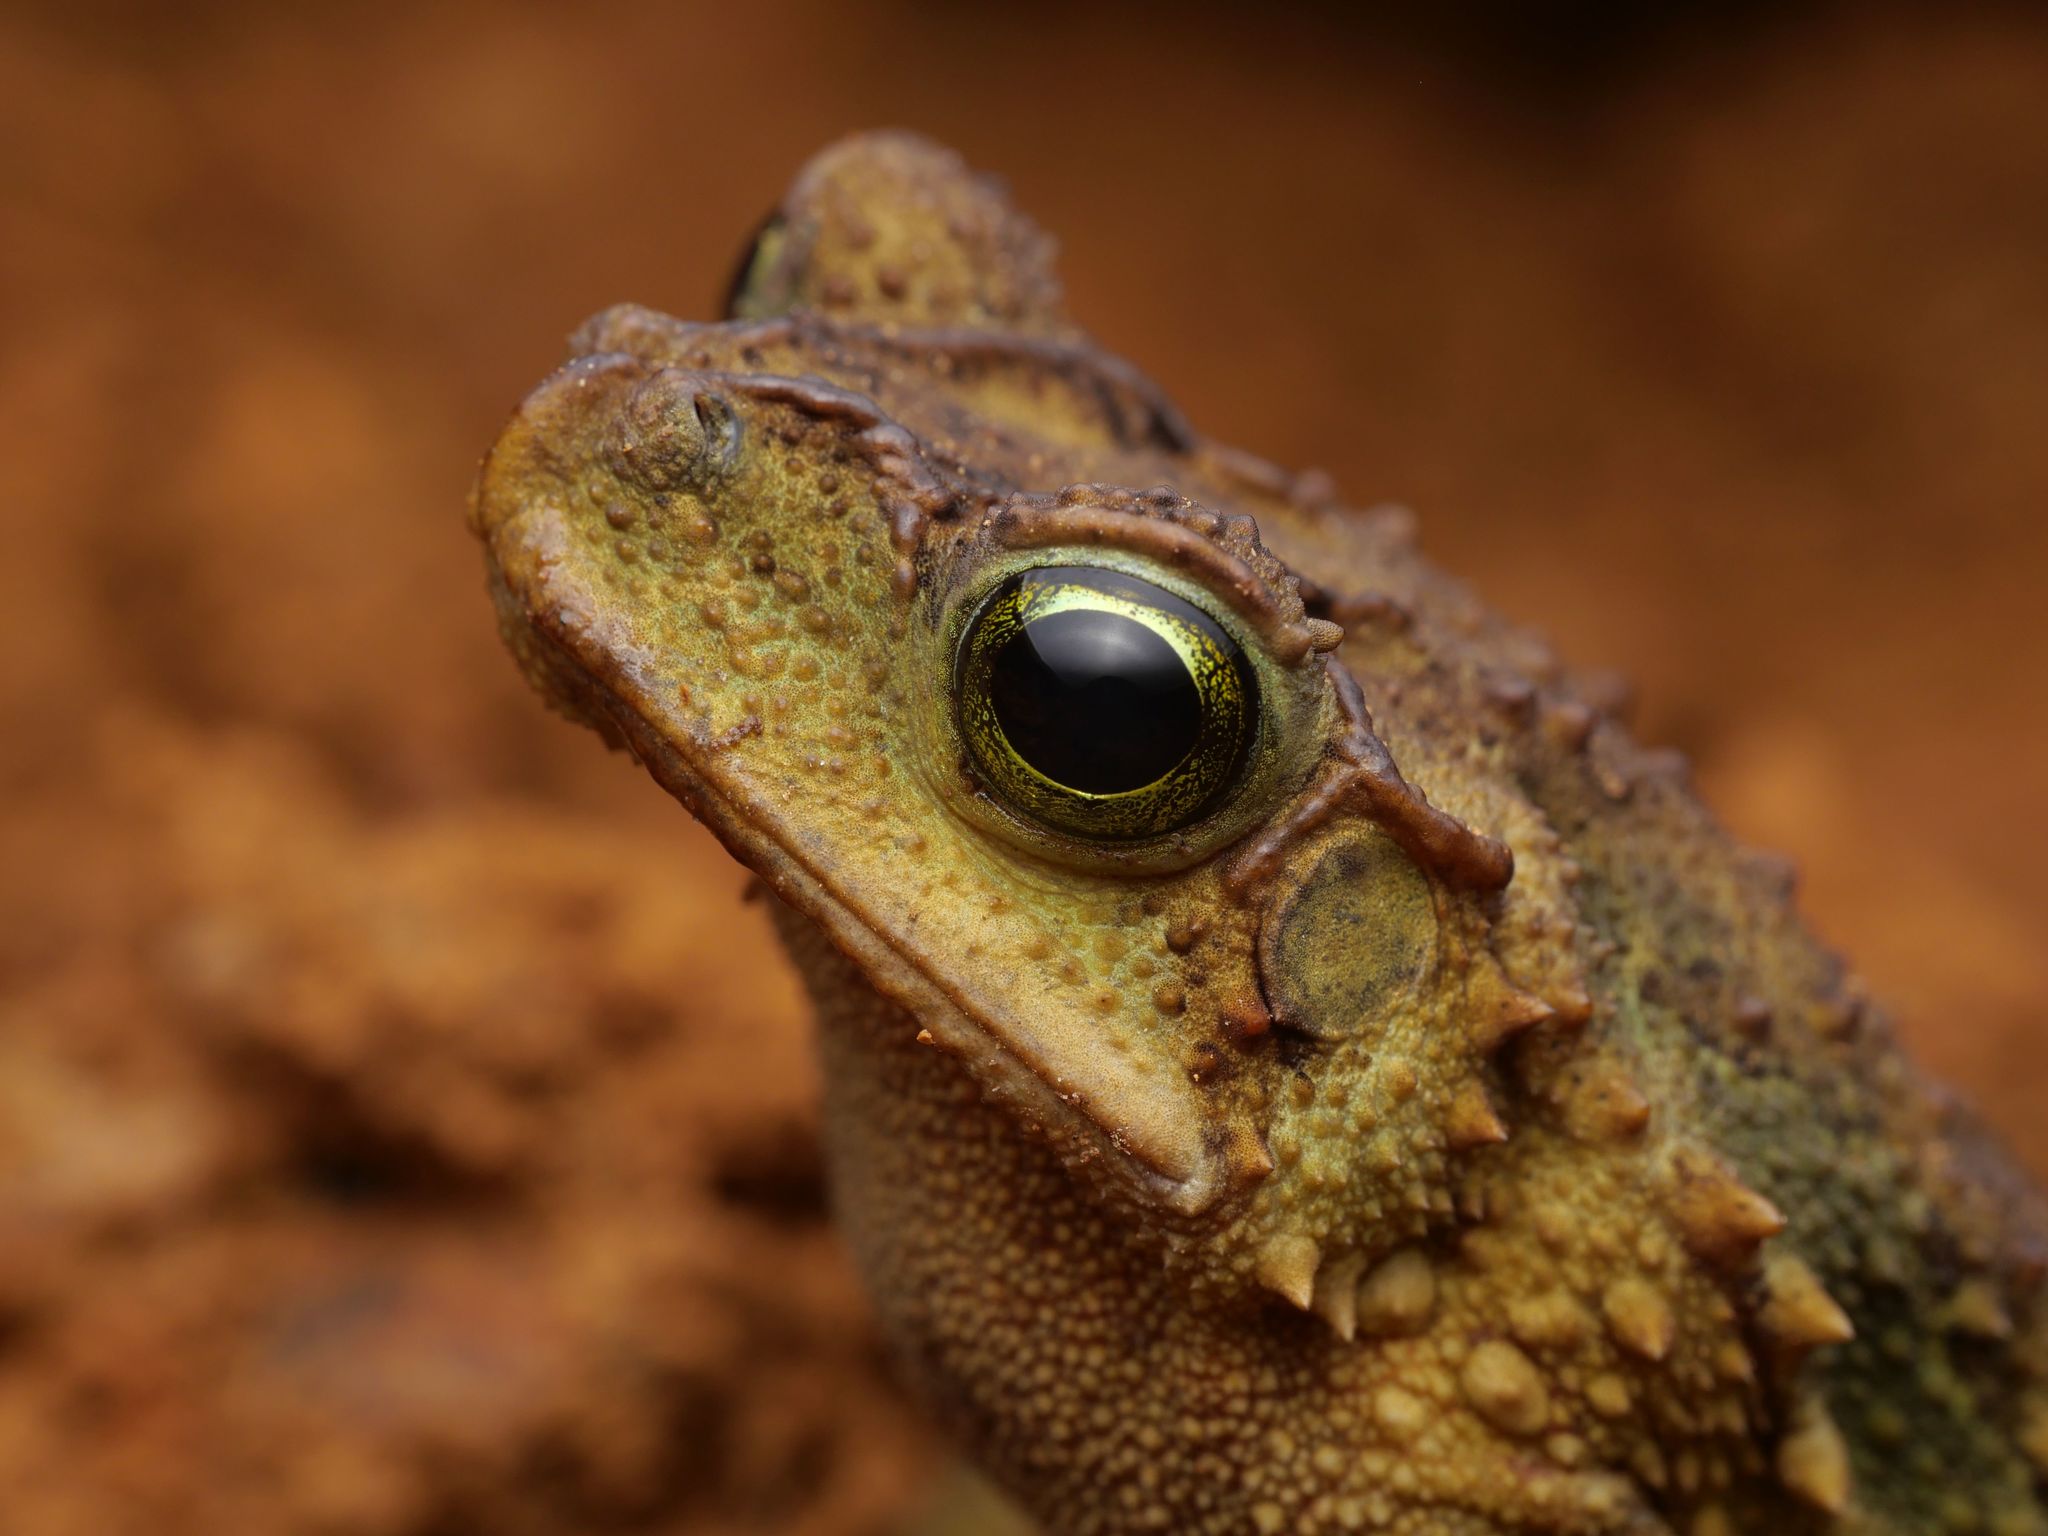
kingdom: Animalia
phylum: Chordata
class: Amphibia
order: Anura
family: Bufonidae
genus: Incilius
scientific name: Incilius coniferus
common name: Evergreen toad
